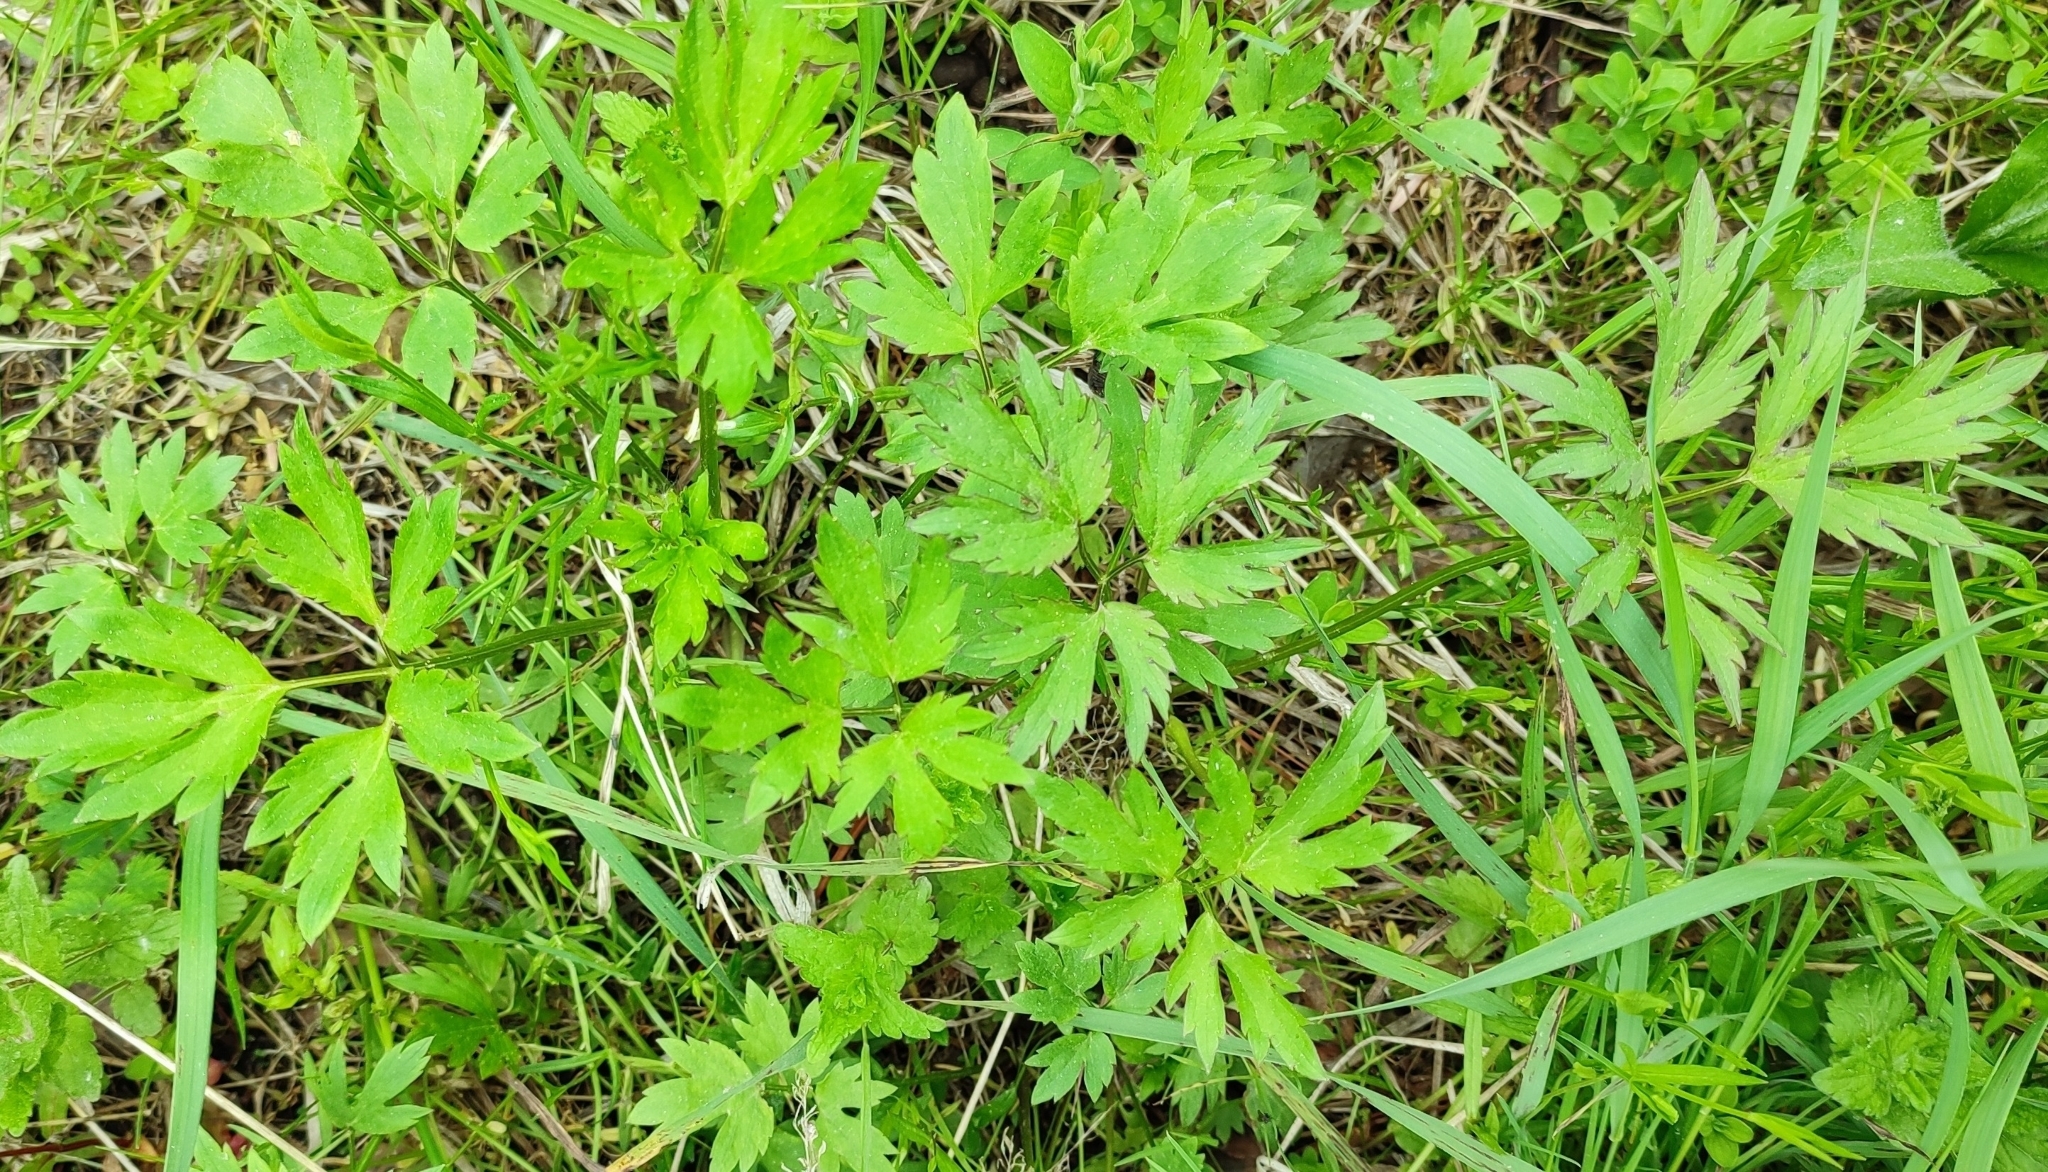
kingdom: Plantae
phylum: Tracheophyta
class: Magnoliopsida
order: Ranunculales
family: Ranunculaceae
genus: Ranunculus
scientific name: Ranunculus repens
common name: Creeping buttercup
